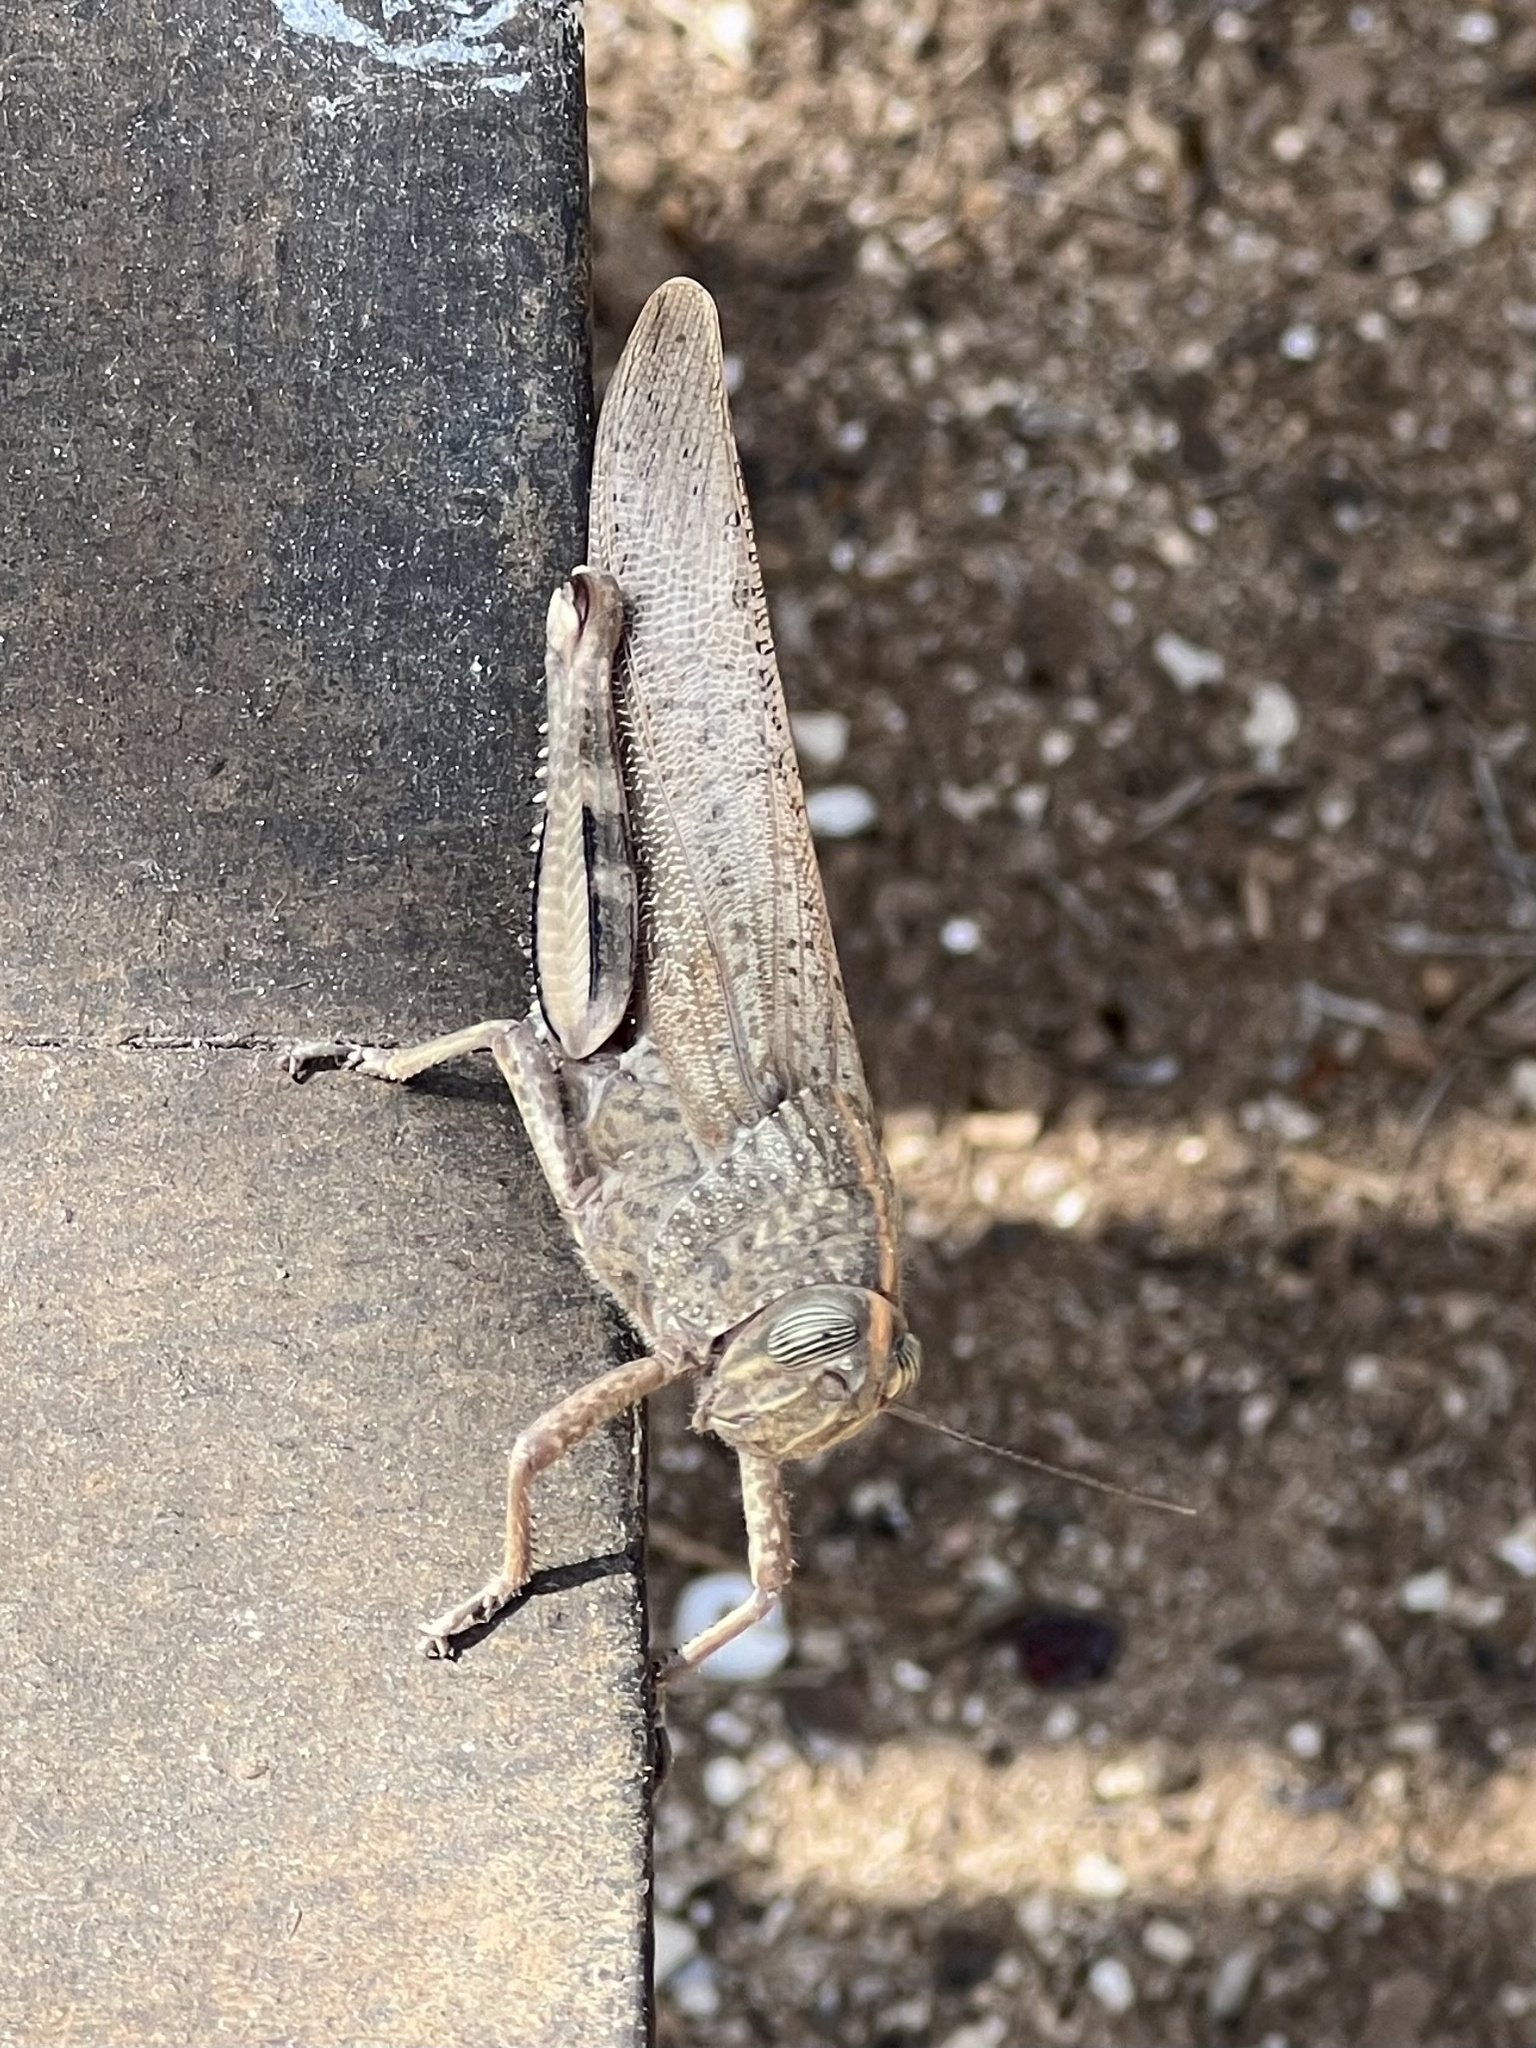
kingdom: Animalia
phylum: Arthropoda
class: Insecta
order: Orthoptera
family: Acrididae
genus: Anacridium
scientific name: Anacridium aegyptium
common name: Egyptian grasshopper
